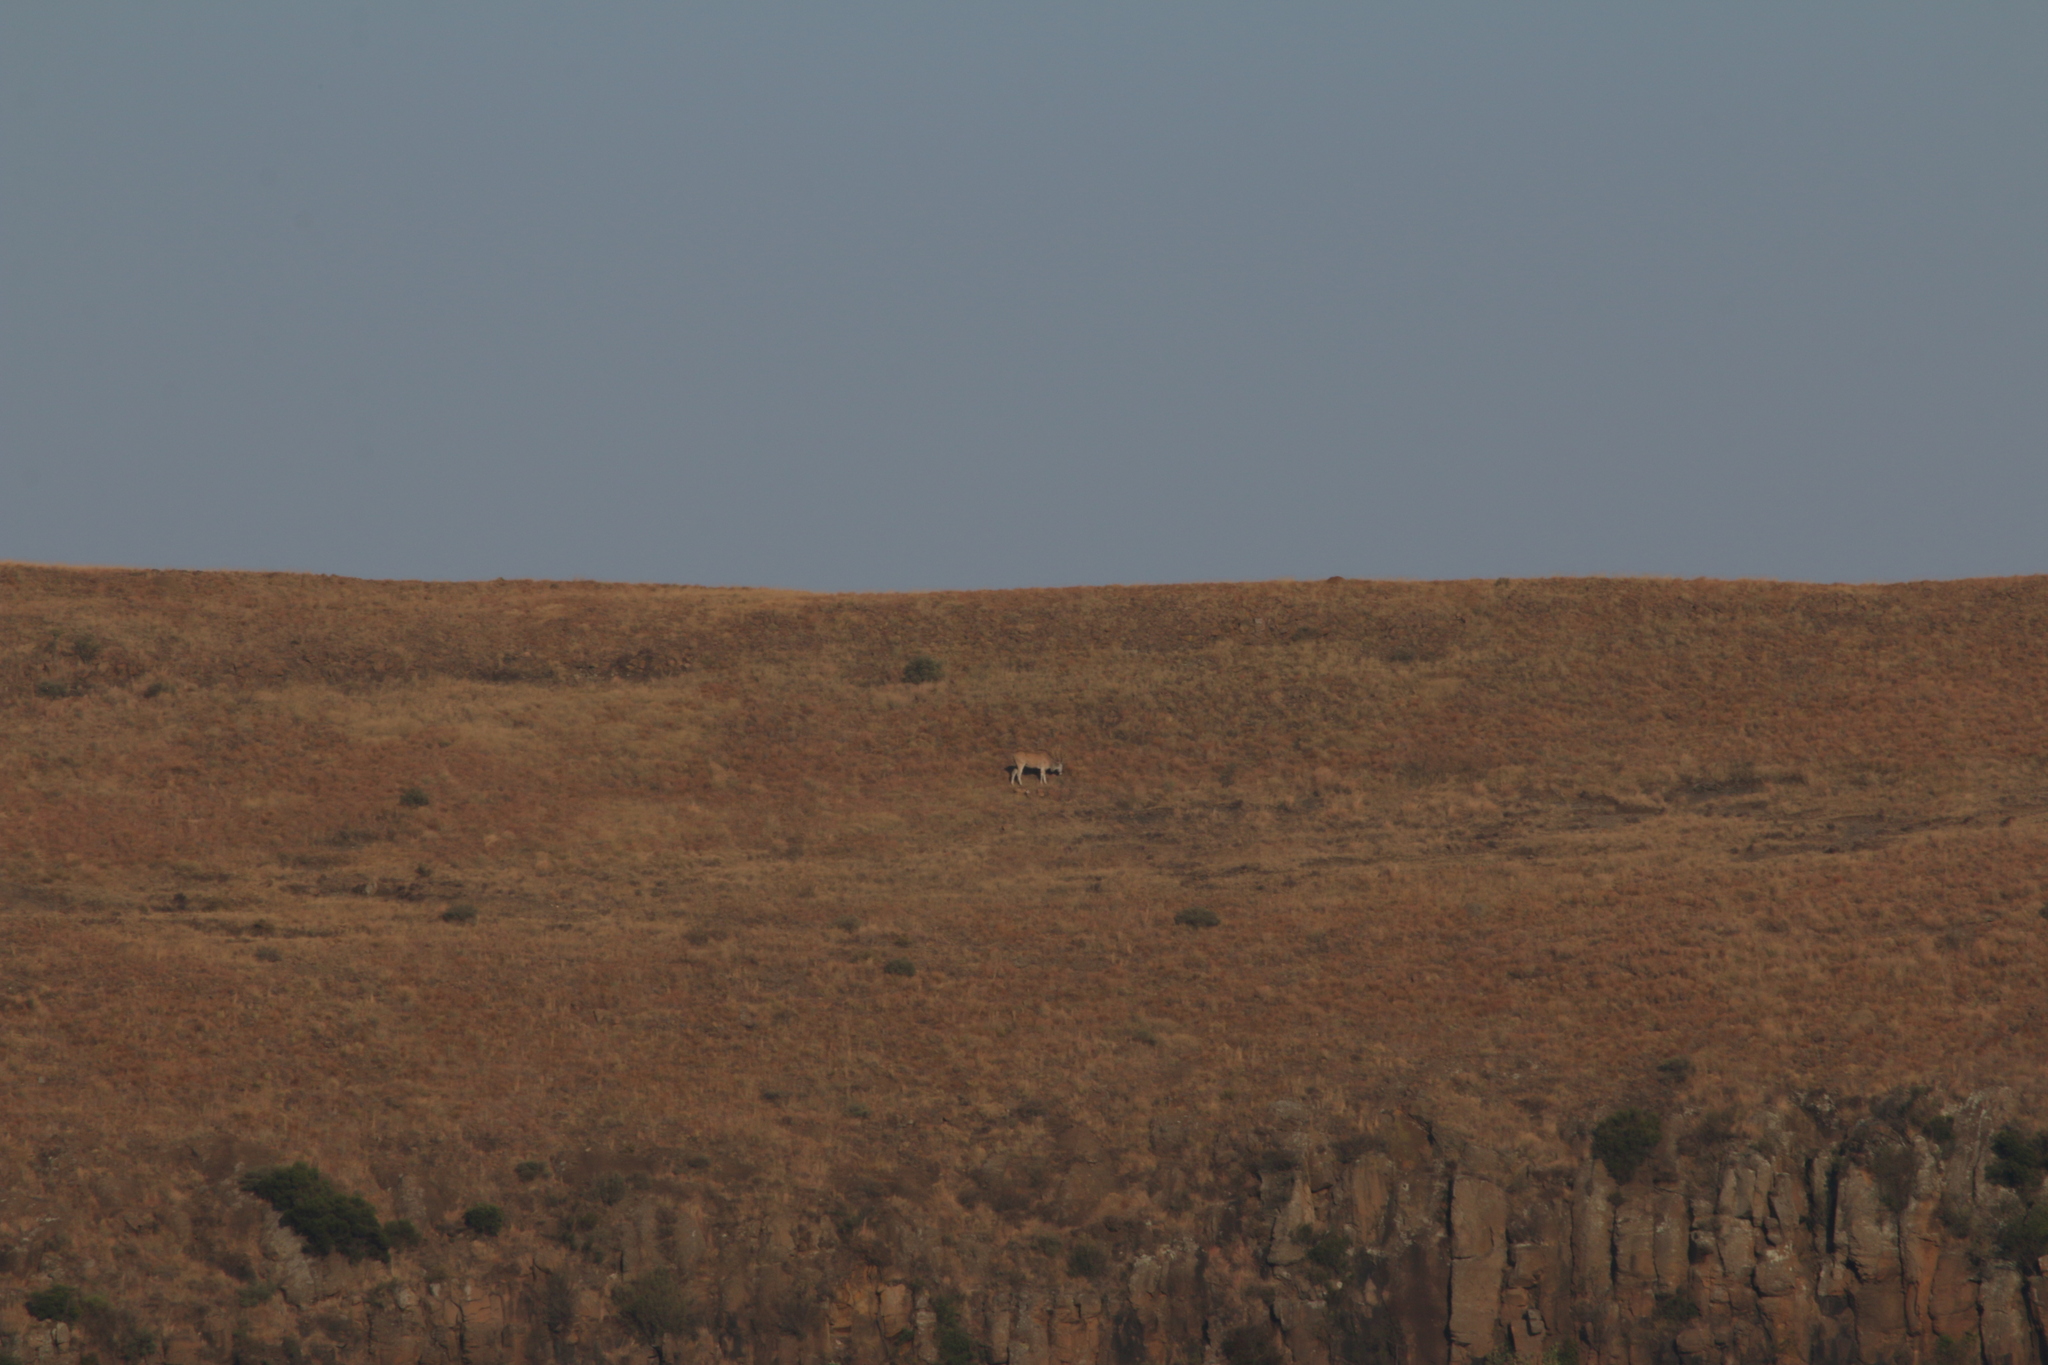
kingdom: Animalia
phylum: Chordata
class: Mammalia
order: Artiodactyla
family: Bovidae
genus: Taurotragus
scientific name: Taurotragus oryx
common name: Common eland
